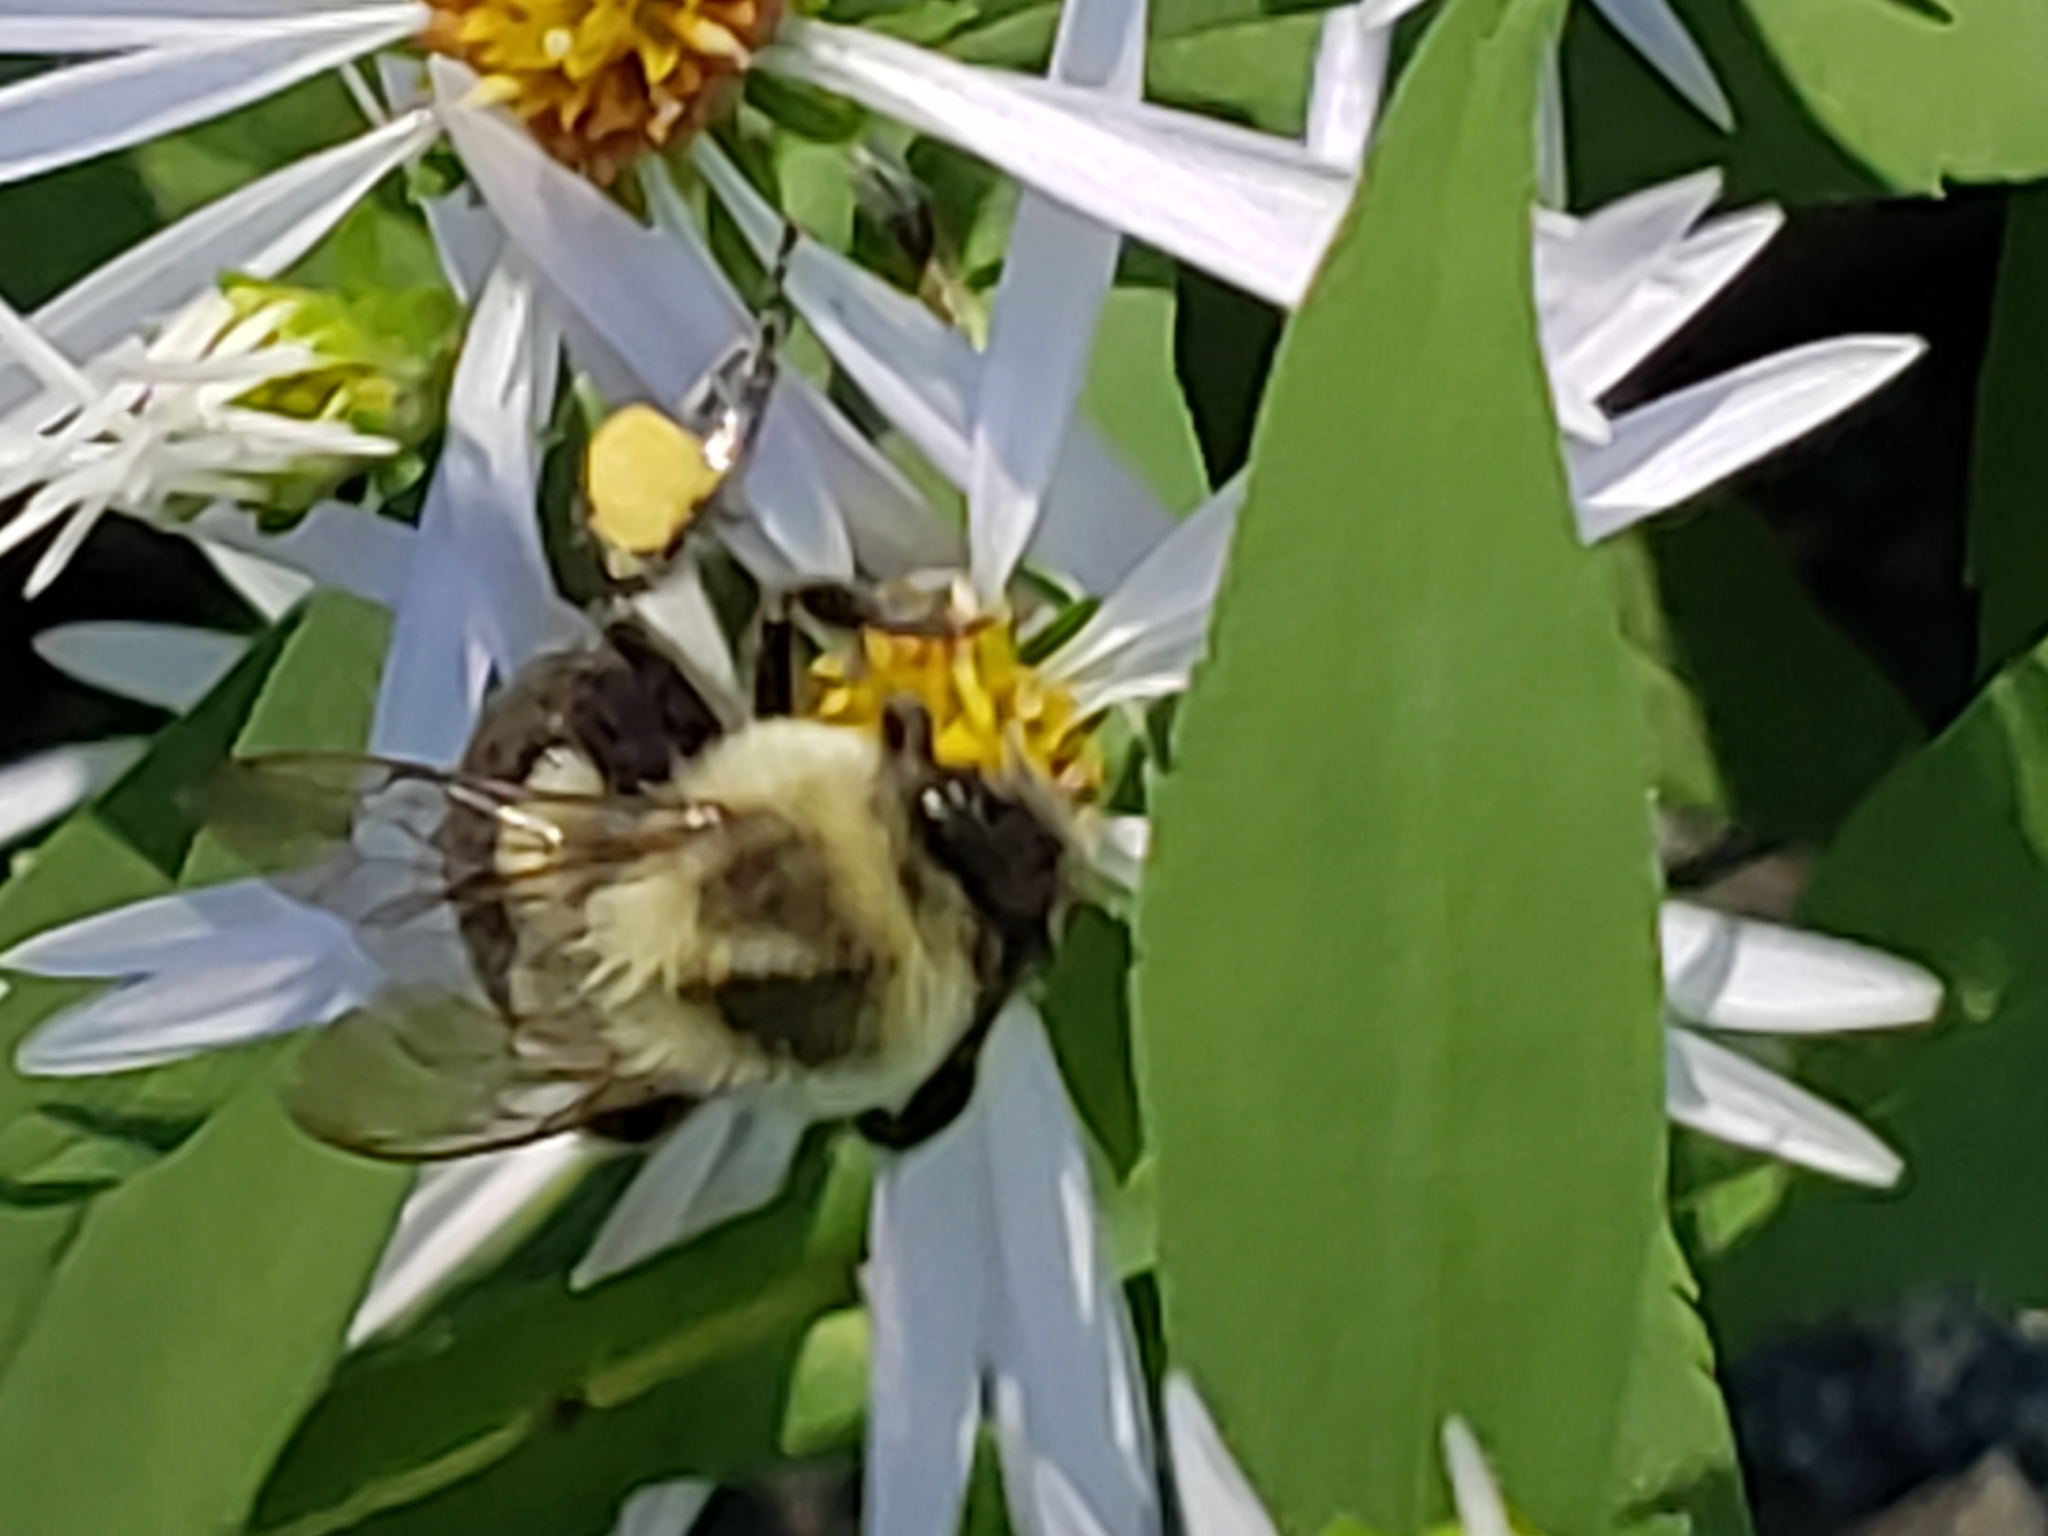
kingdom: Animalia
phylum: Arthropoda
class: Insecta
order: Hymenoptera
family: Apidae
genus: Bombus
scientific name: Bombus impatiens
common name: Common eastern bumble bee
